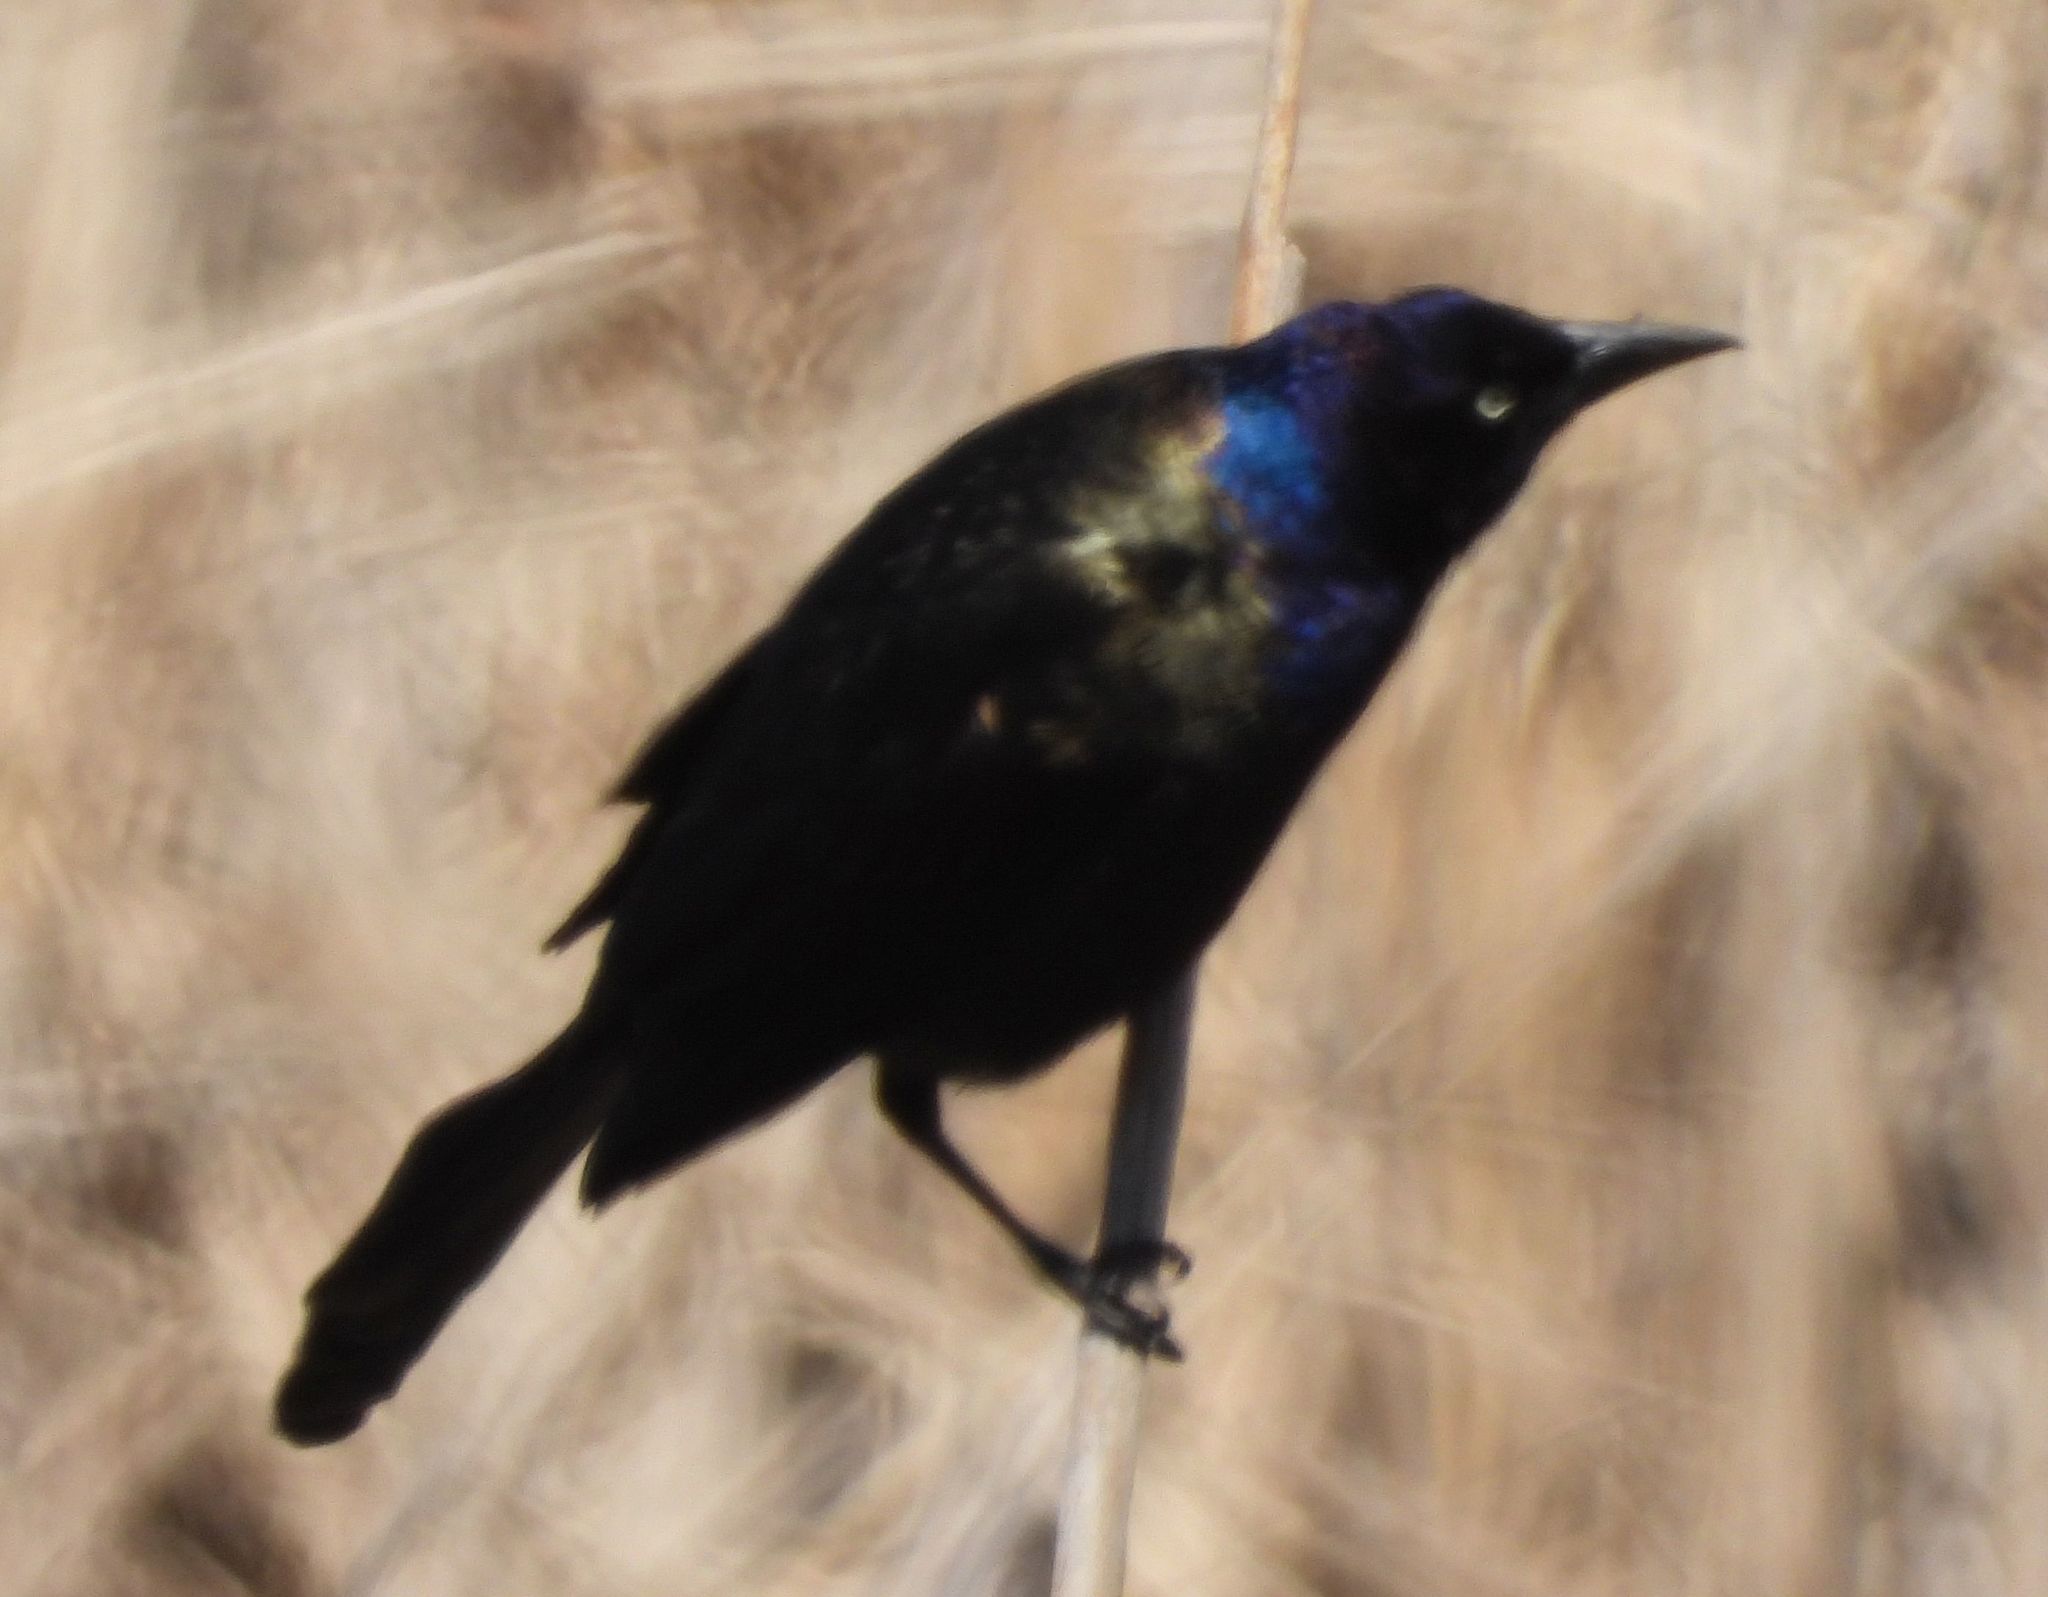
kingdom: Animalia
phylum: Chordata
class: Aves
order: Passeriformes
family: Icteridae
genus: Quiscalus
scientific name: Quiscalus quiscula
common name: Common grackle
